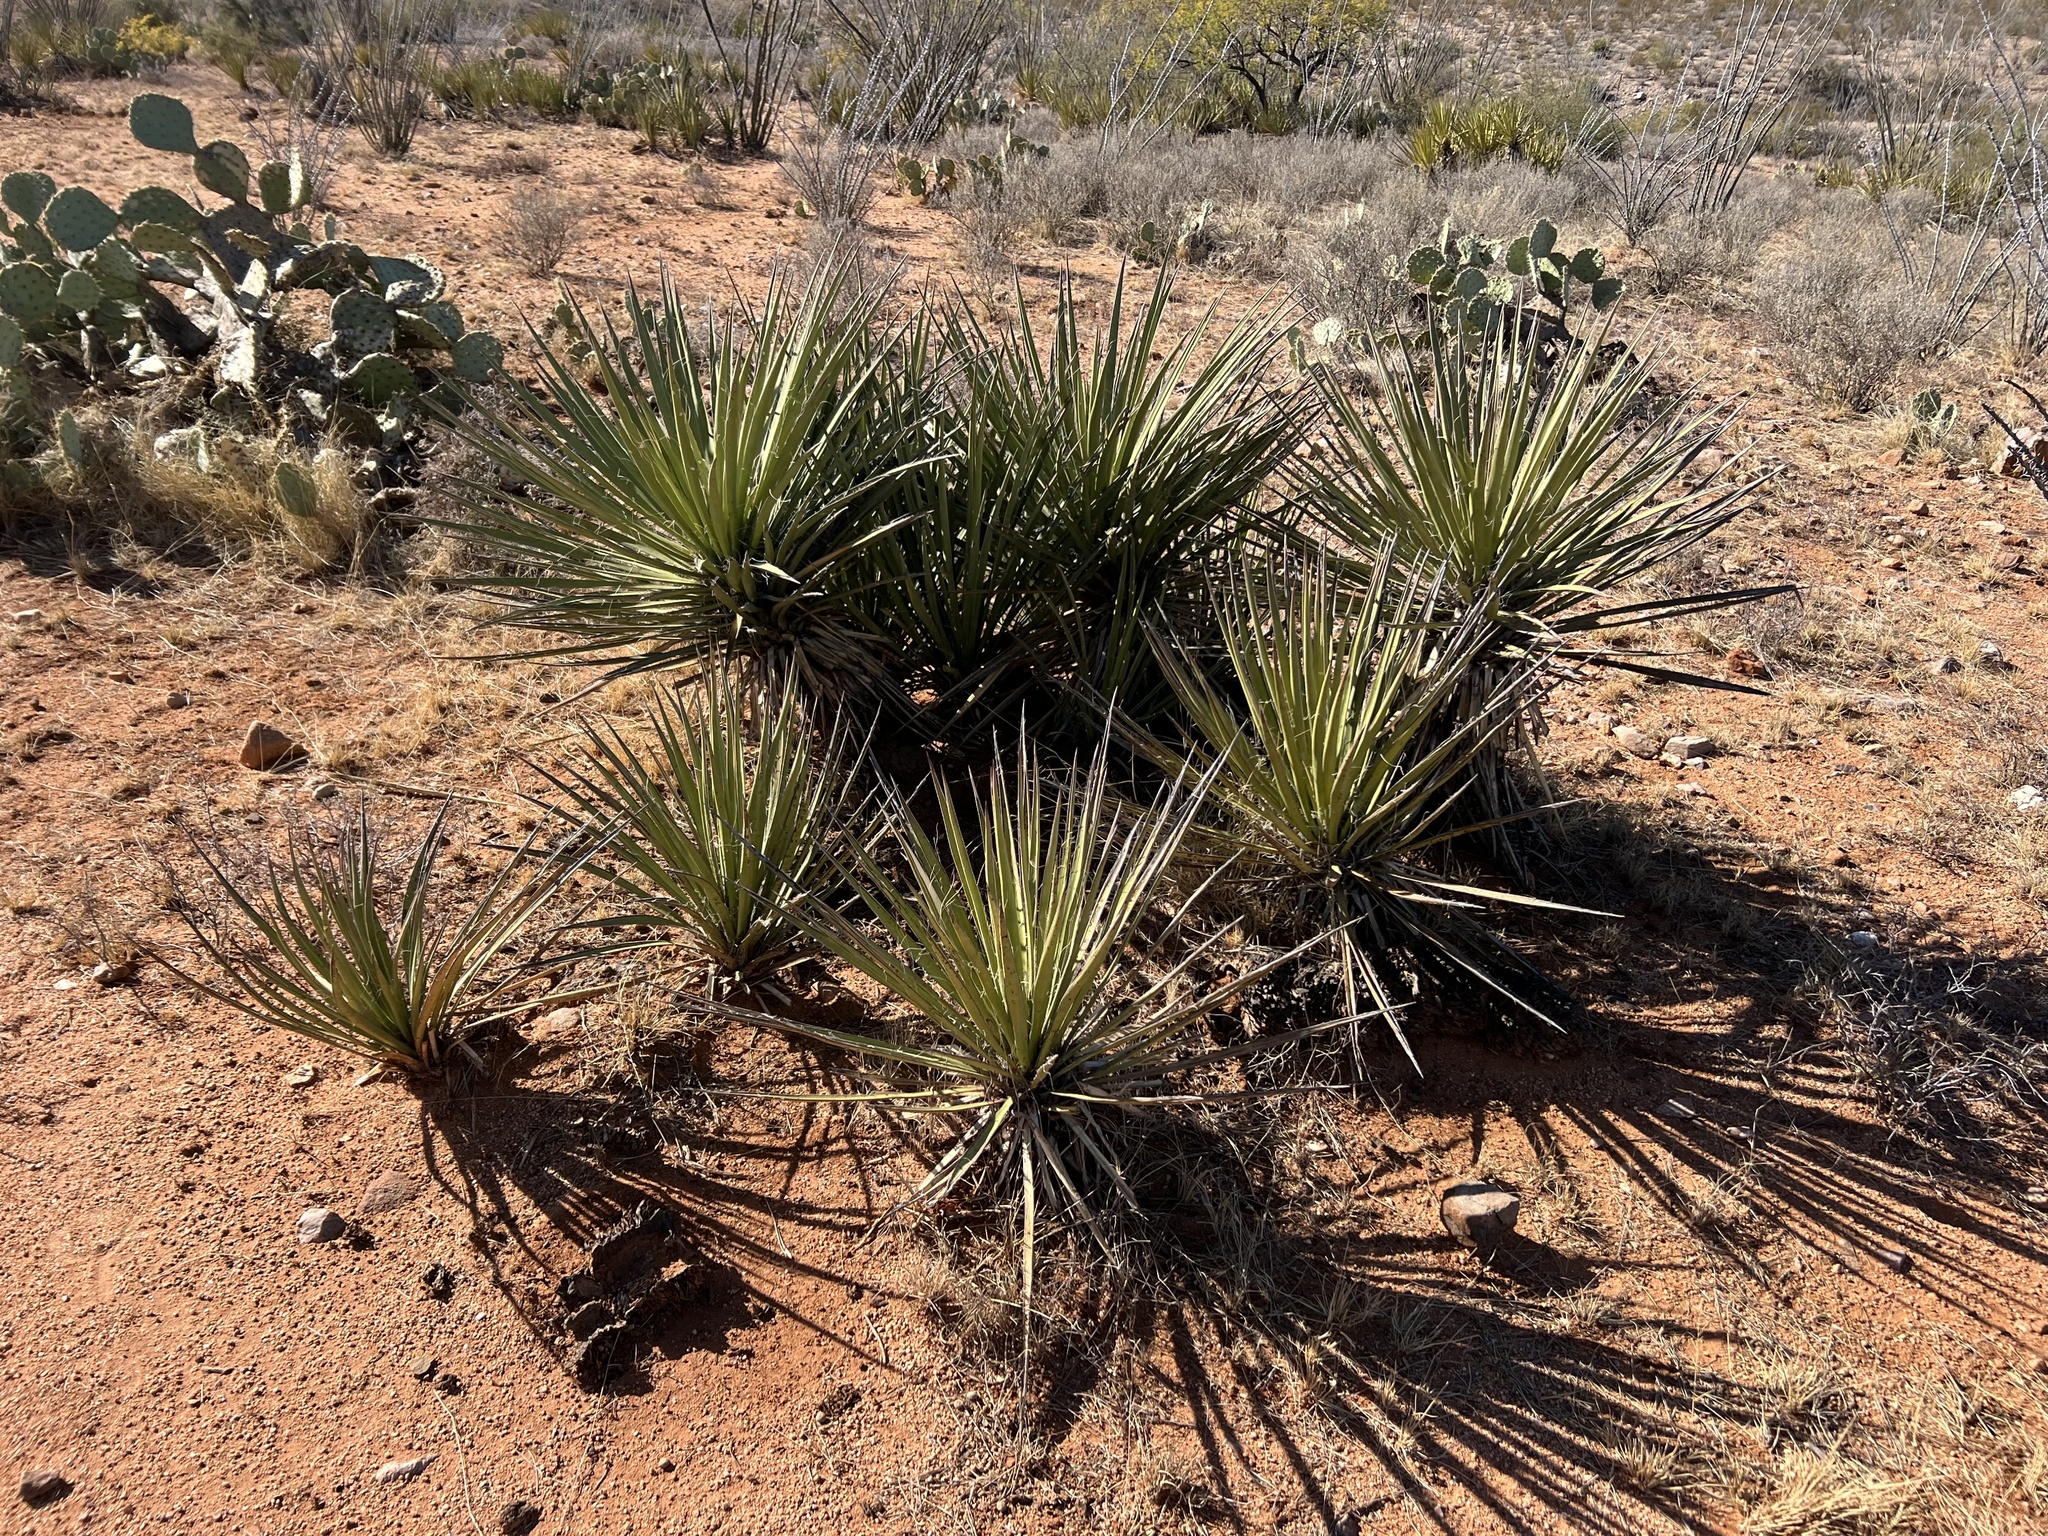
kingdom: Plantae
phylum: Tracheophyta
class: Liliopsida
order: Asparagales
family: Asparagaceae
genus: Yucca
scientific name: Yucca baccata
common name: Banana yucca
